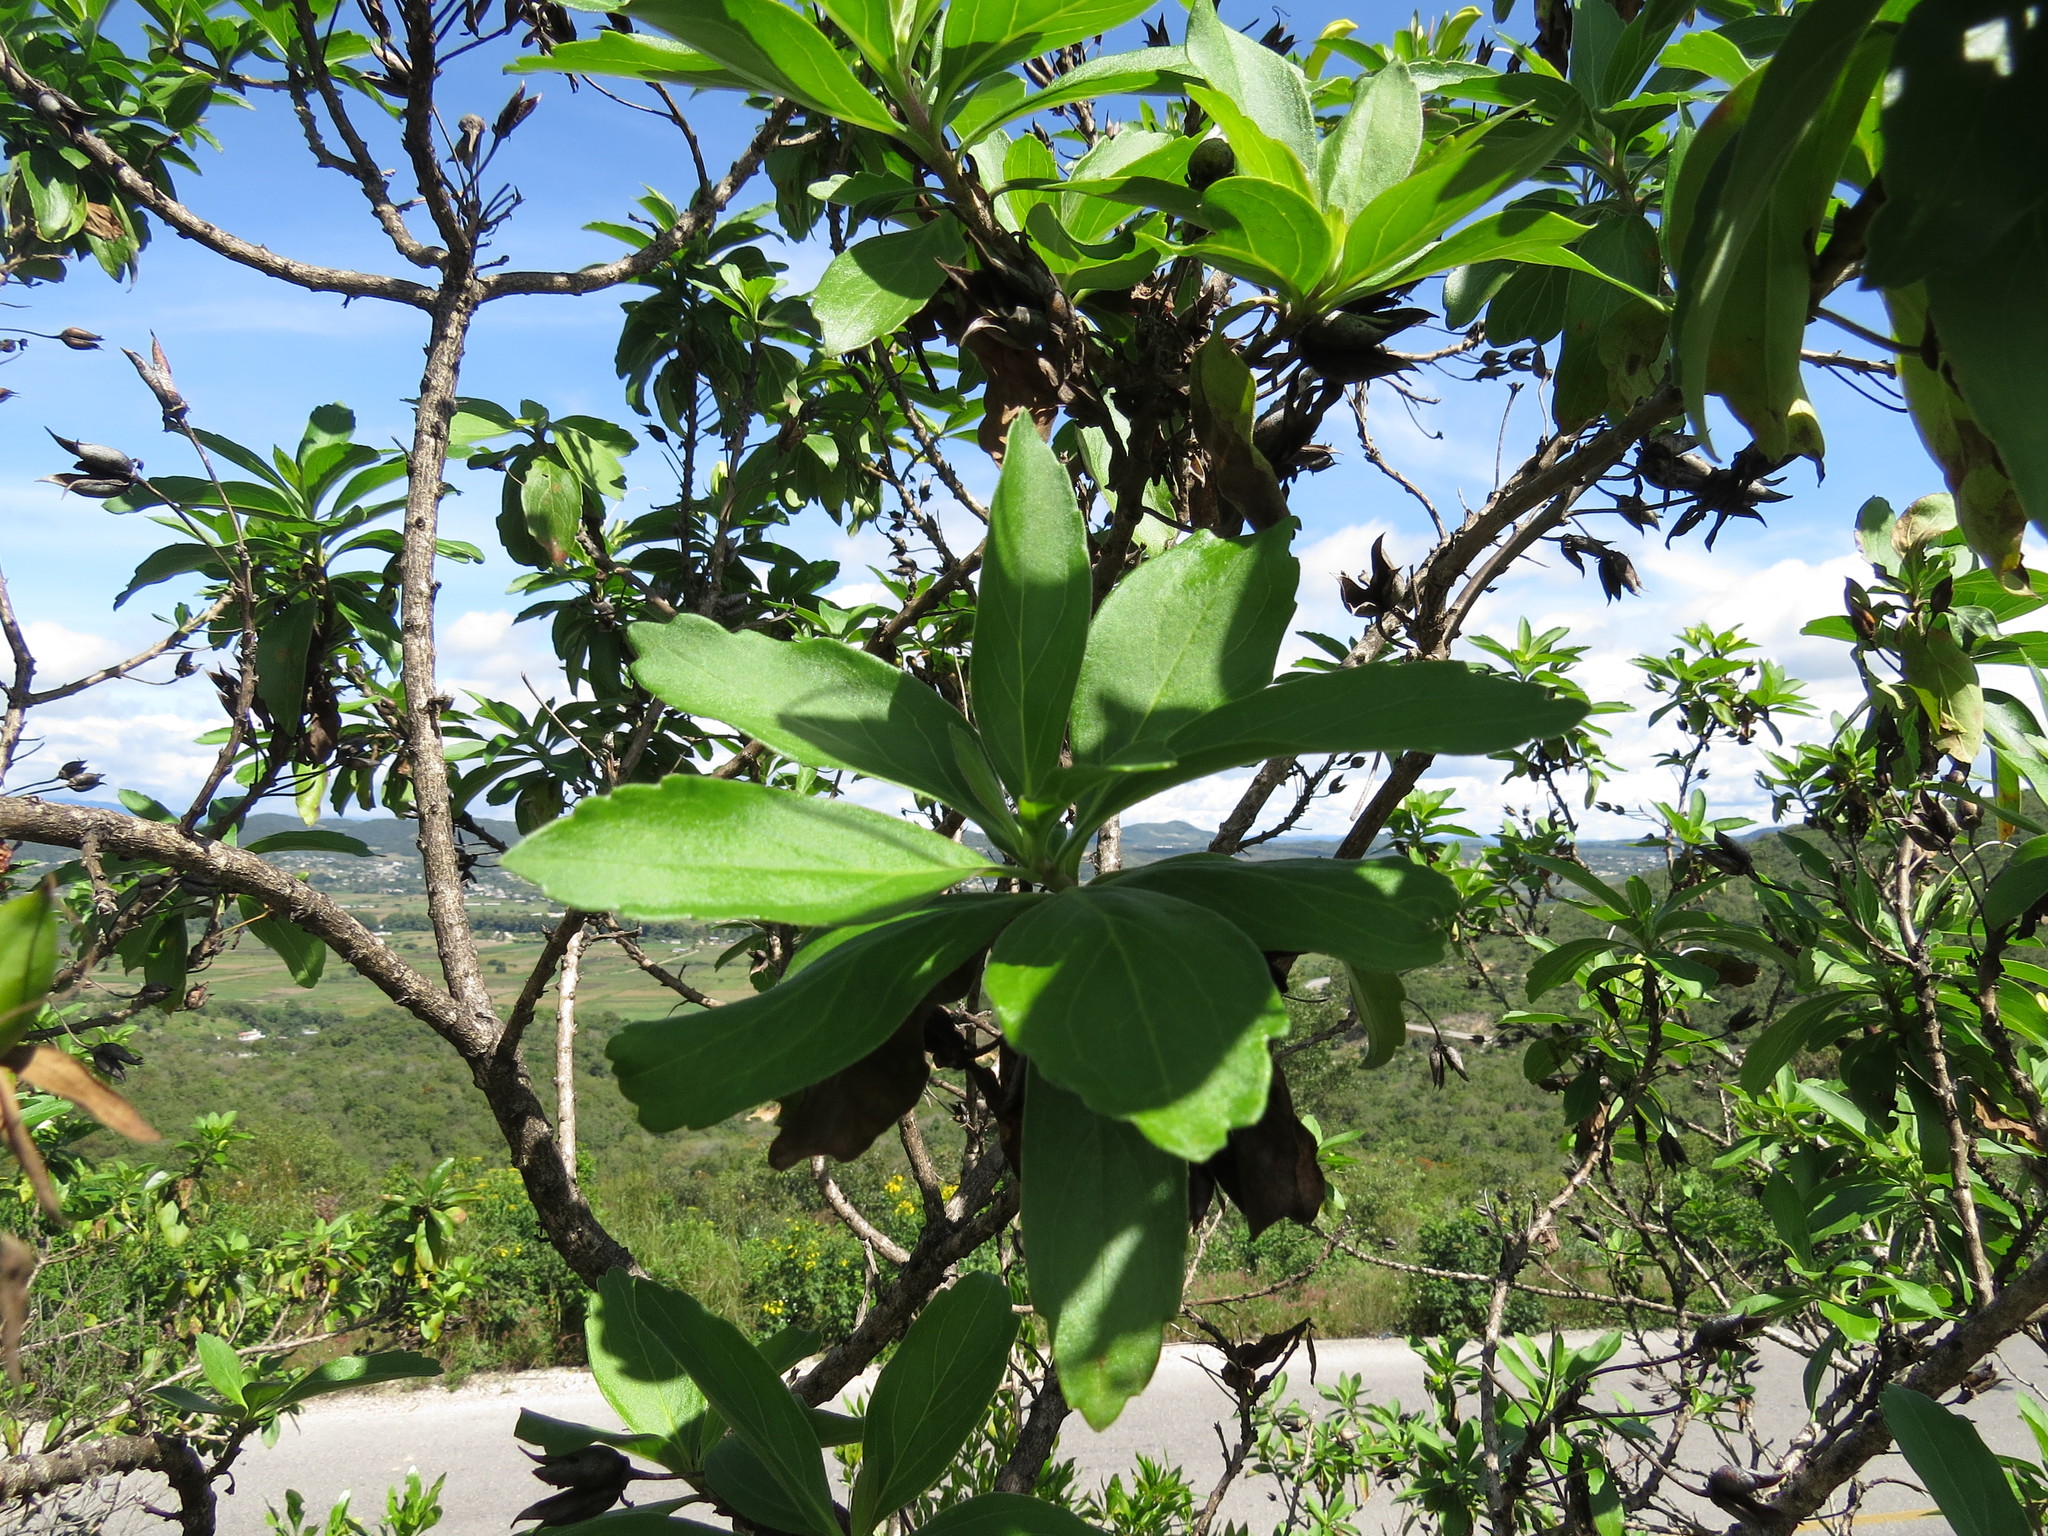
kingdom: Plantae
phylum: Tracheophyta
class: Magnoliopsida
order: Lamiales
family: Scrophulariaceae
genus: Eremogeton
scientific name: Eremogeton grandiflorus
